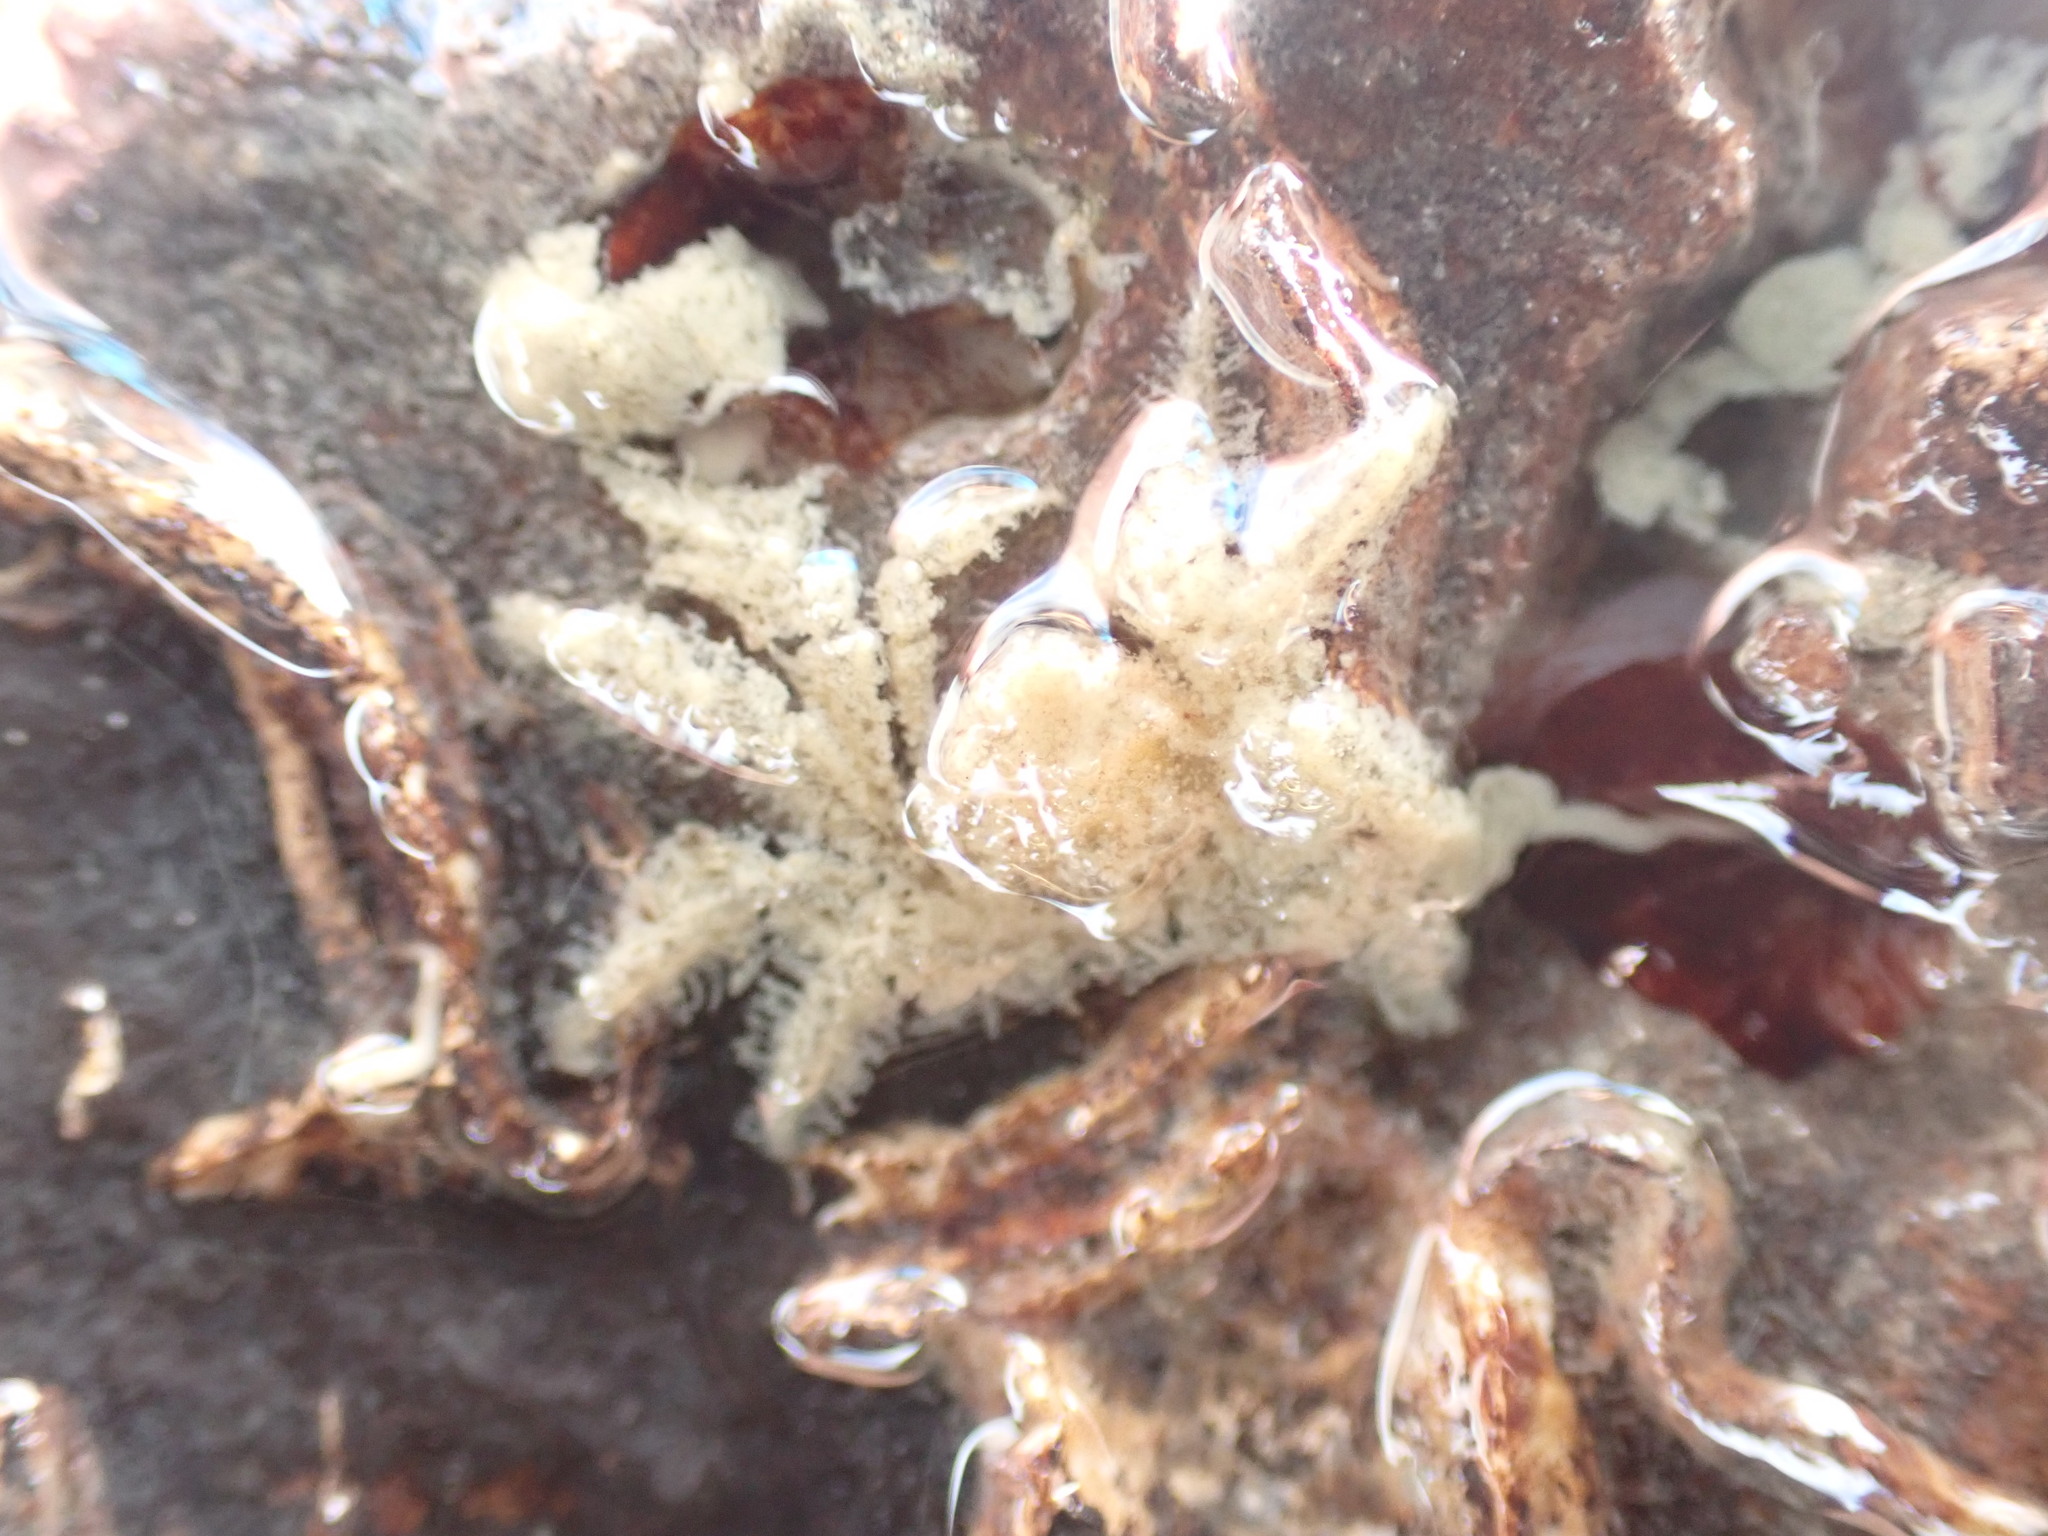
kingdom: Animalia
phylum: Arthropoda
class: Malacostraca
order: Decapoda
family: Hymenosomatidae
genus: Neohymenicus
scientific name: Neohymenicus pubescens
